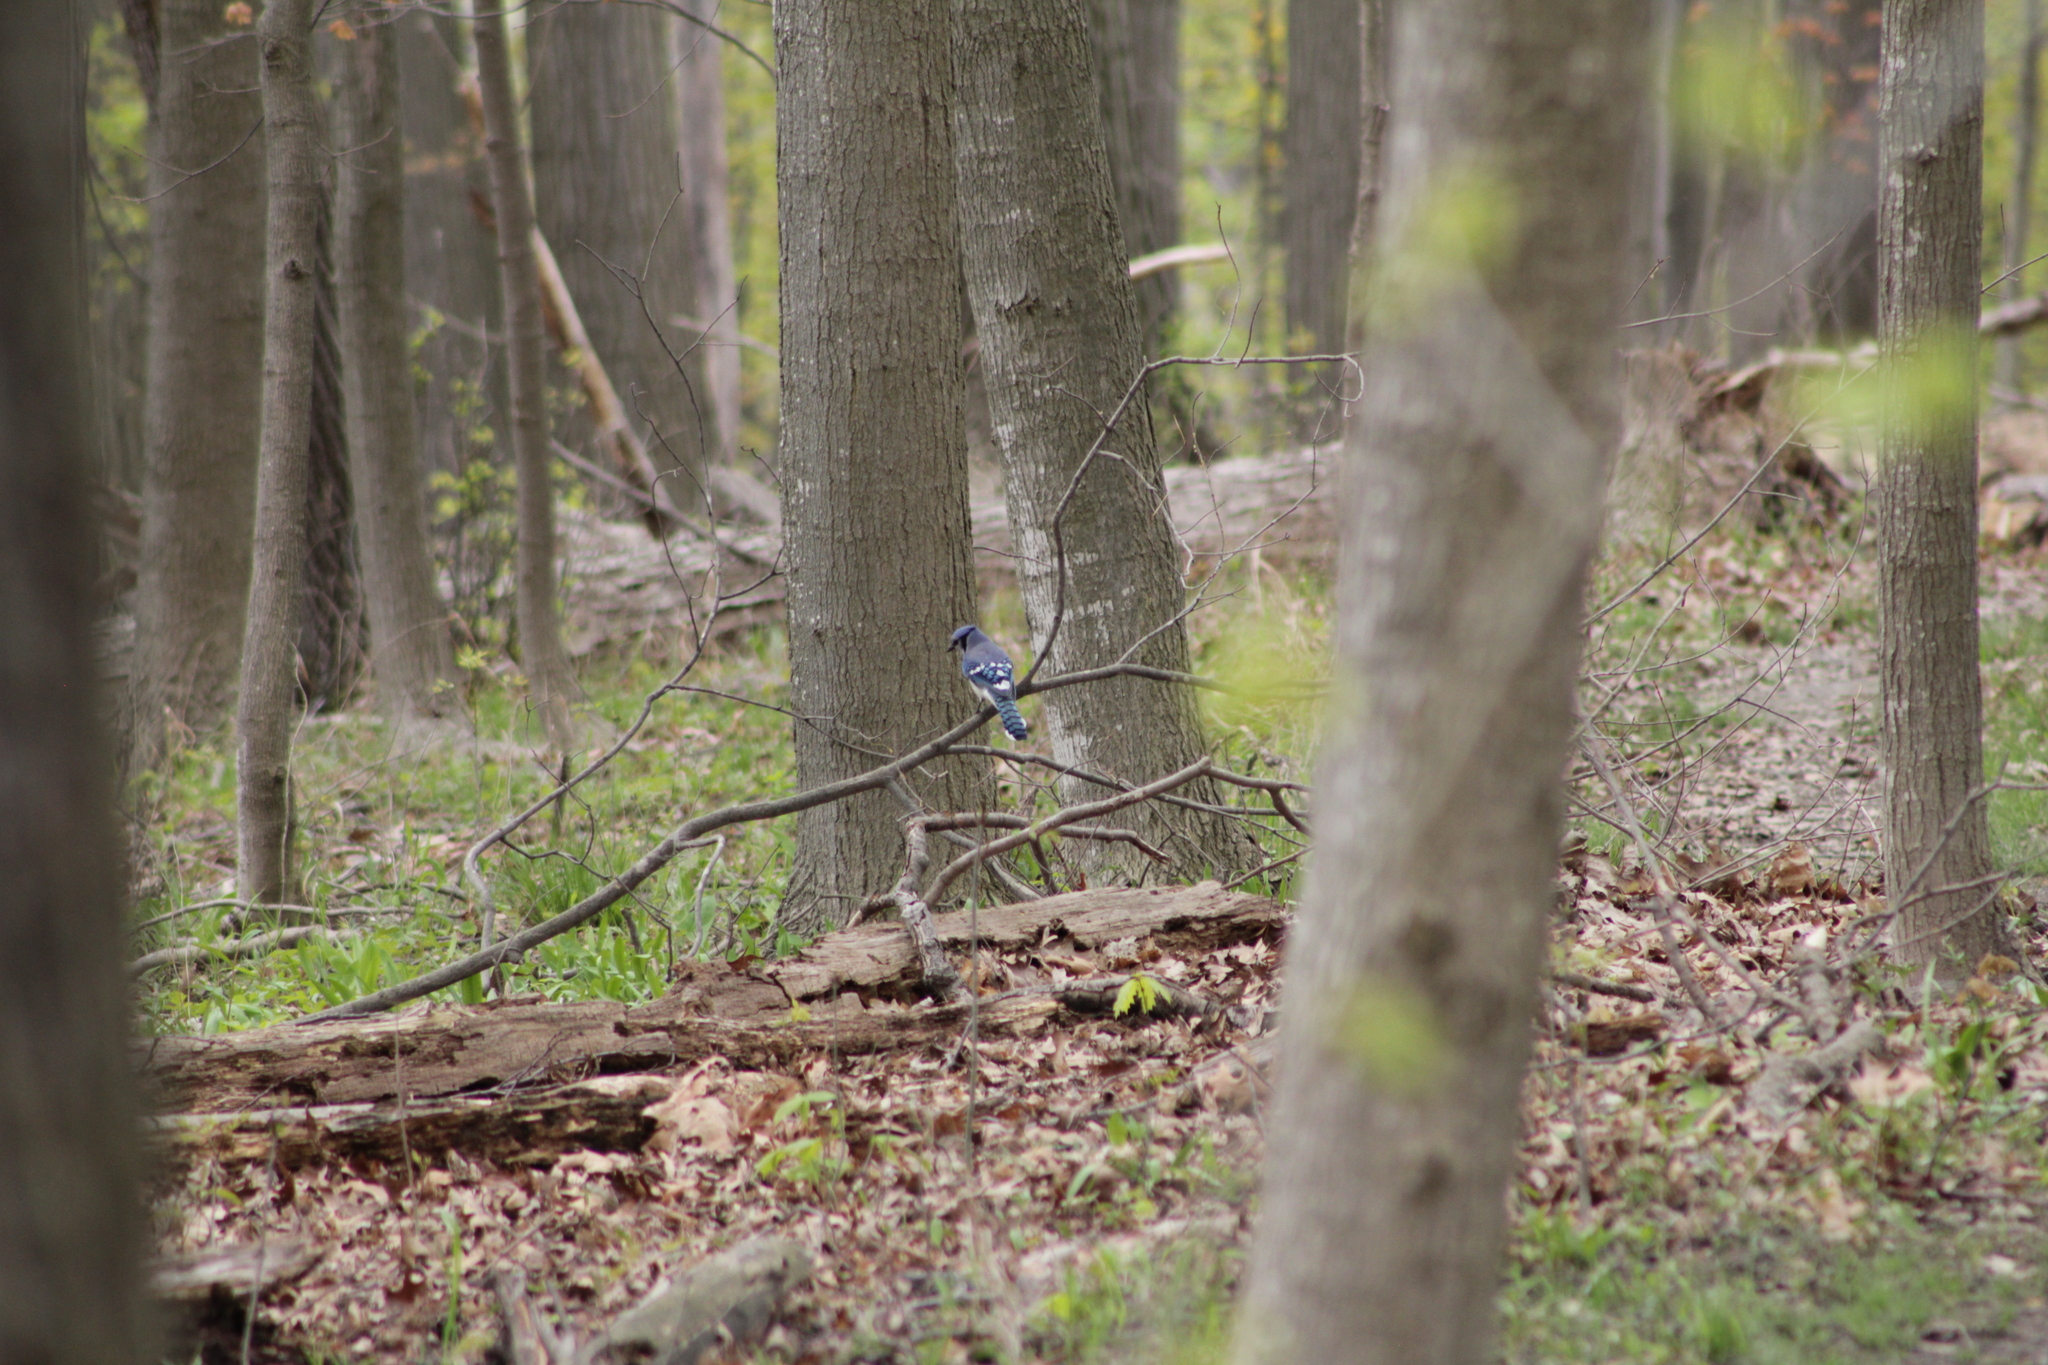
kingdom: Animalia
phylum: Chordata
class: Aves
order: Passeriformes
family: Corvidae
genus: Cyanocitta
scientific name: Cyanocitta cristata
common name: Blue jay
